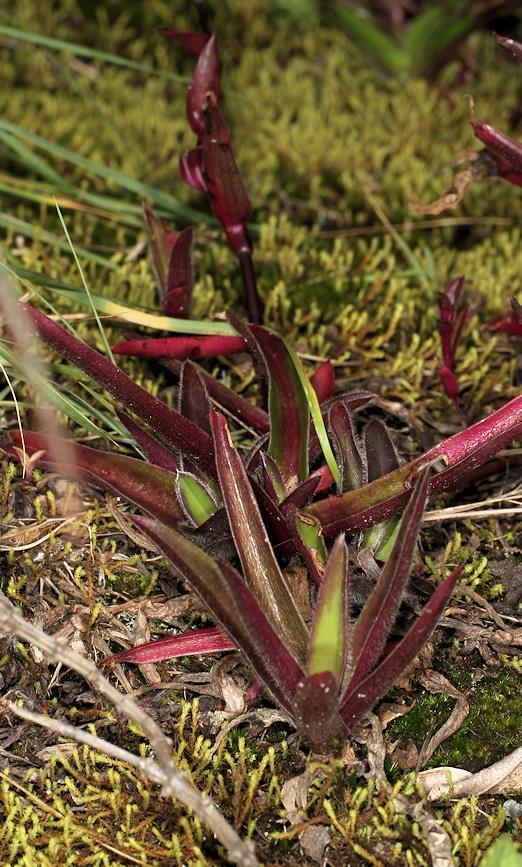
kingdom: Plantae
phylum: Tracheophyta
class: Liliopsida
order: Commelinales
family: Commelinaceae
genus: Cyanotis
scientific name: Cyanotis lapidosa
